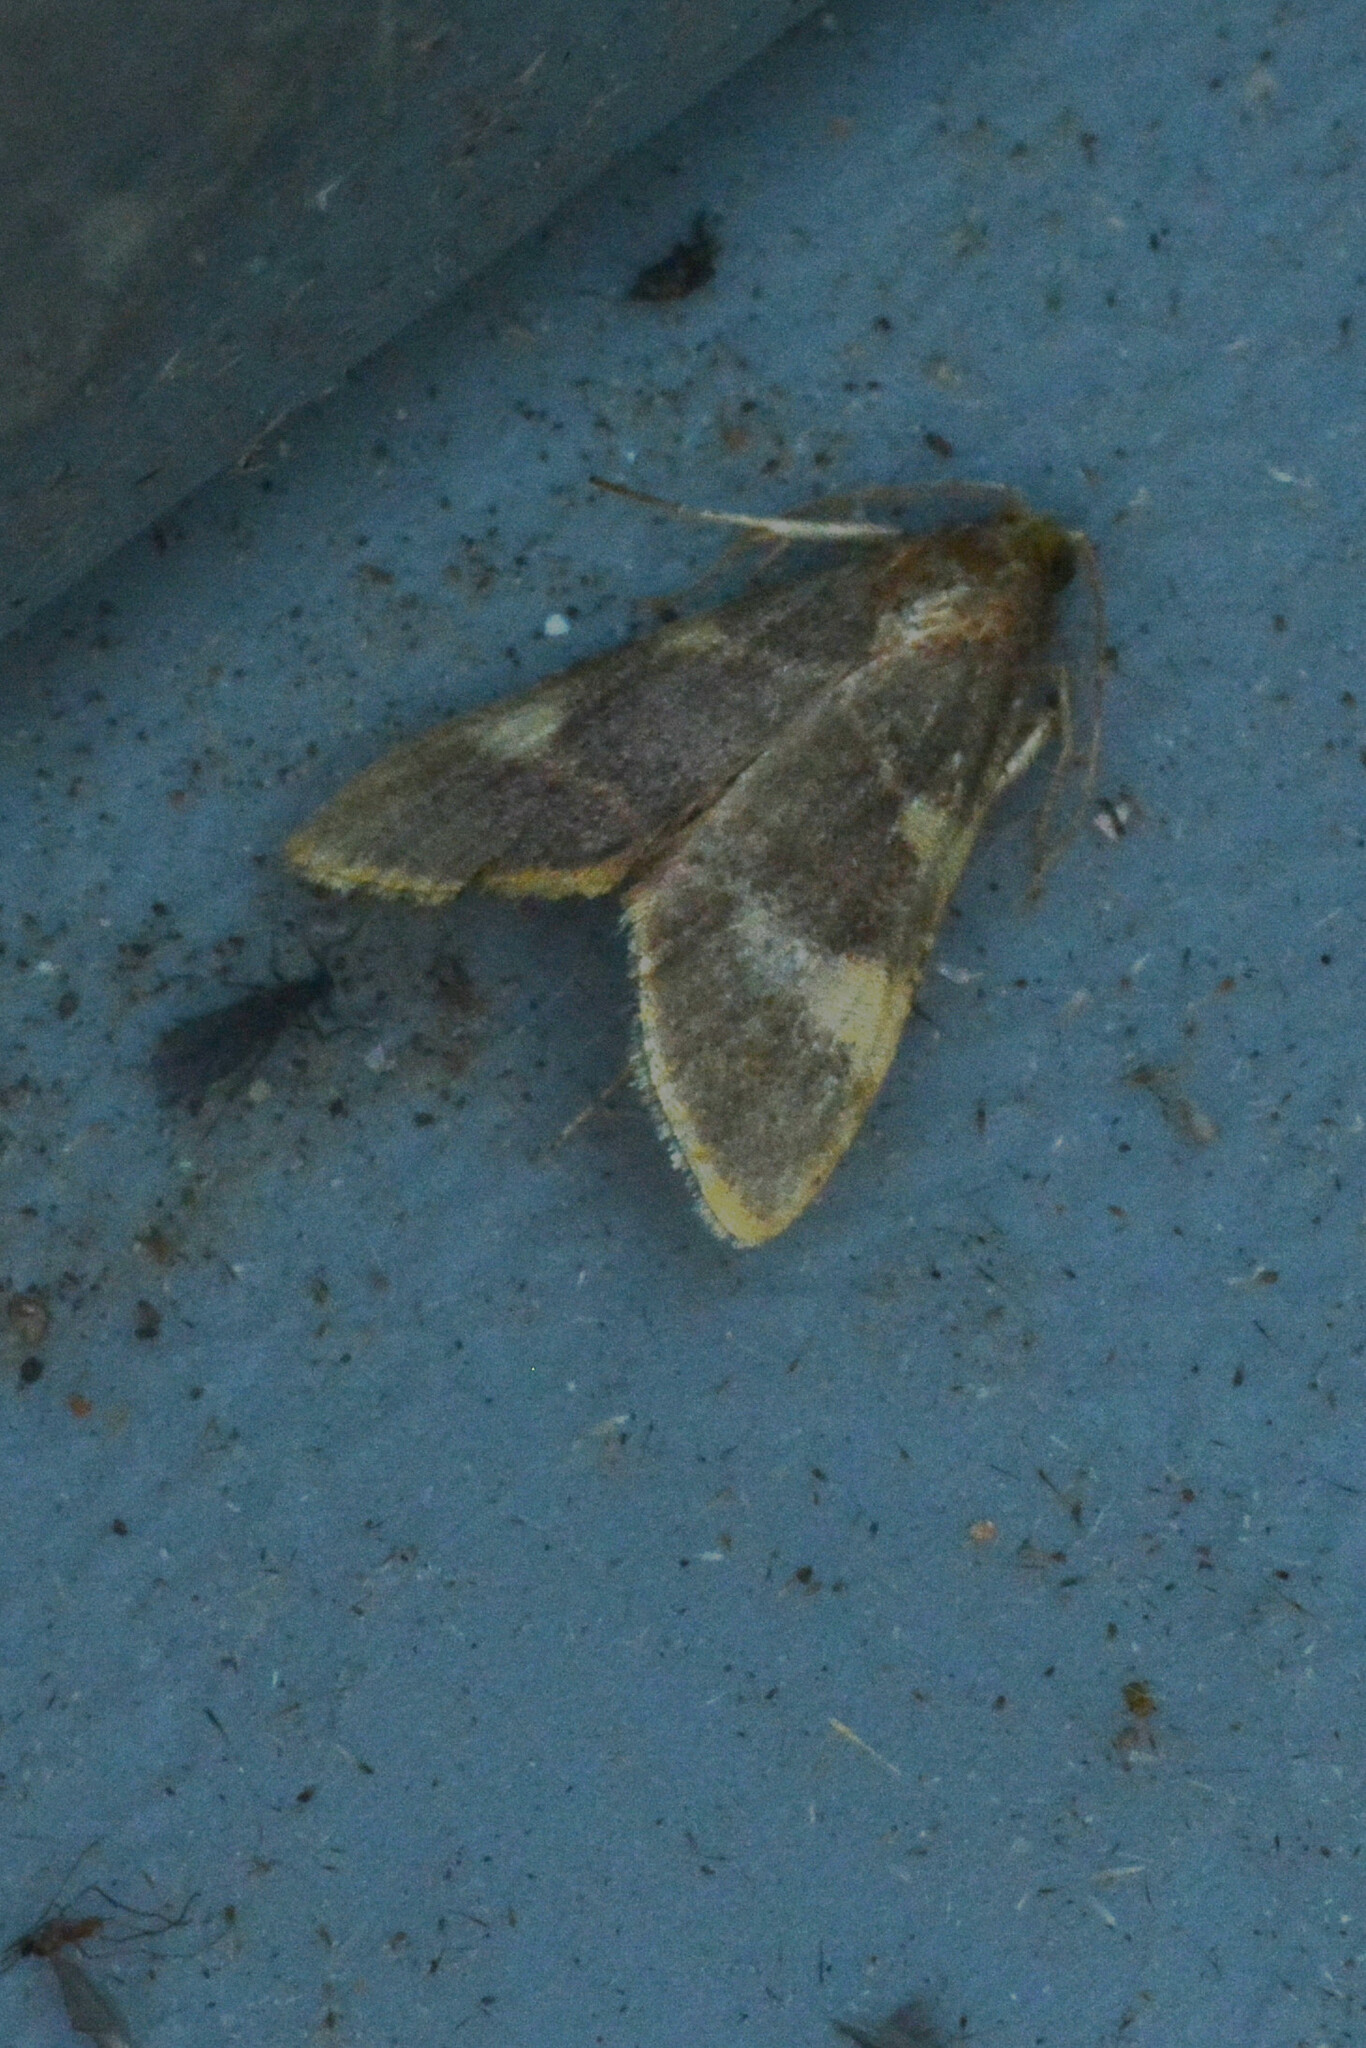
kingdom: Animalia
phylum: Arthropoda
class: Insecta
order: Lepidoptera
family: Pyralidae
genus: Hypsopygia
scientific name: Hypsopygia costalis
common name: Gold triangle
